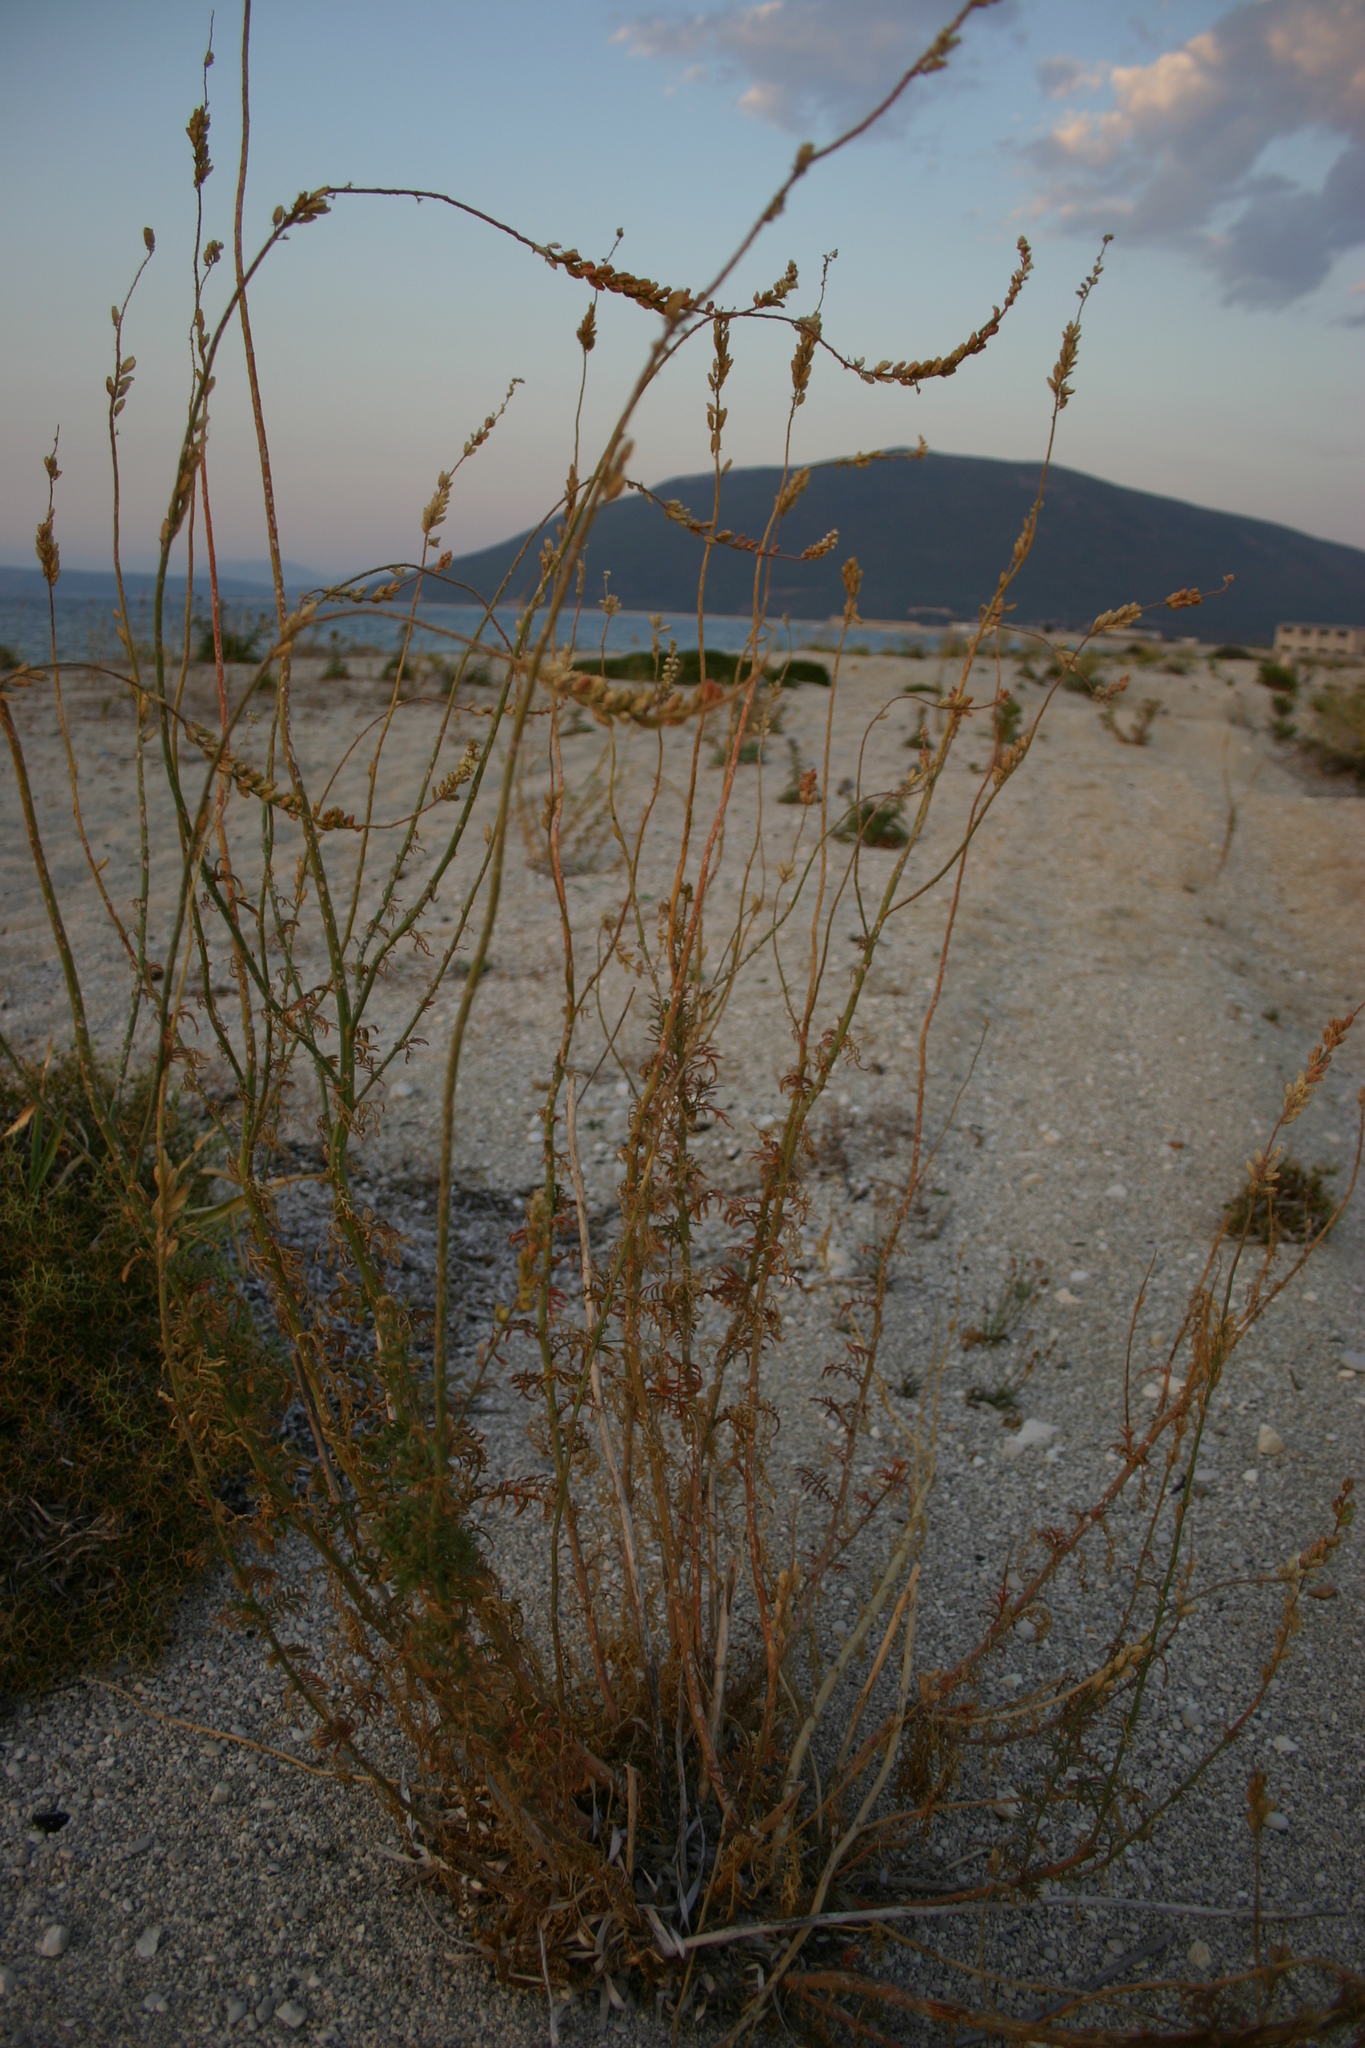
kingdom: Plantae
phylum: Tracheophyta
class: Magnoliopsida
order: Brassicales
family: Resedaceae
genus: Reseda
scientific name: Reseda alba
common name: White mignonette
